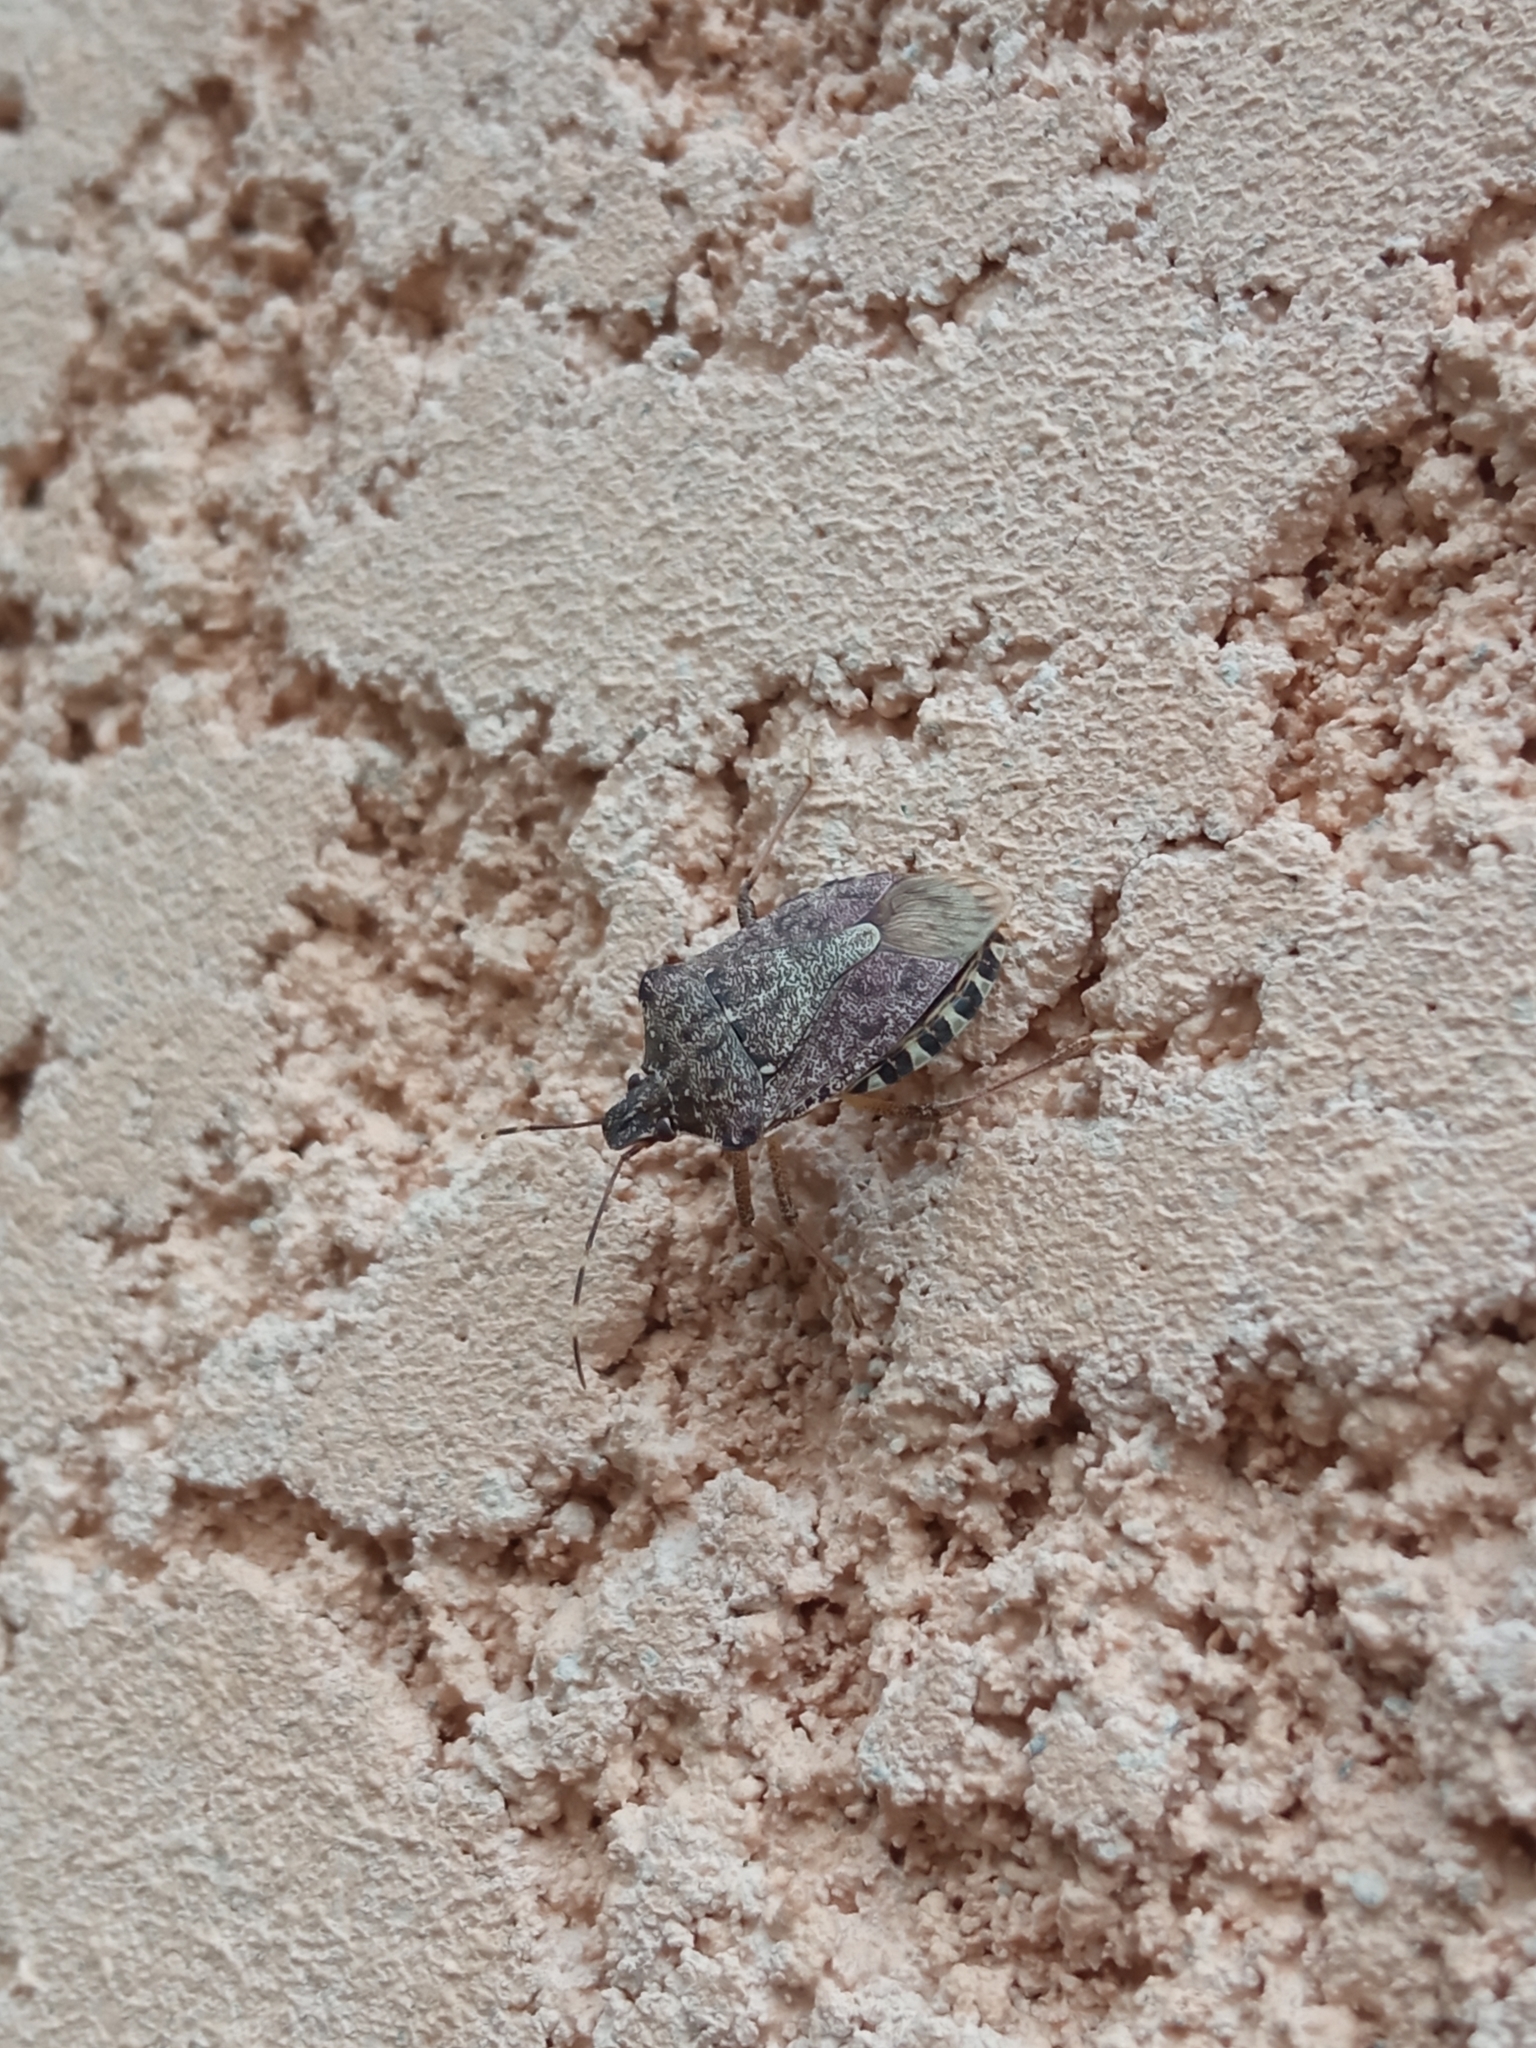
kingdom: Animalia
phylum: Arthropoda
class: Insecta
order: Hemiptera
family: Pentatomidae
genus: Halyomorpha
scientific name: Halyomorpha halys
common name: Brown marmorated stink bug
